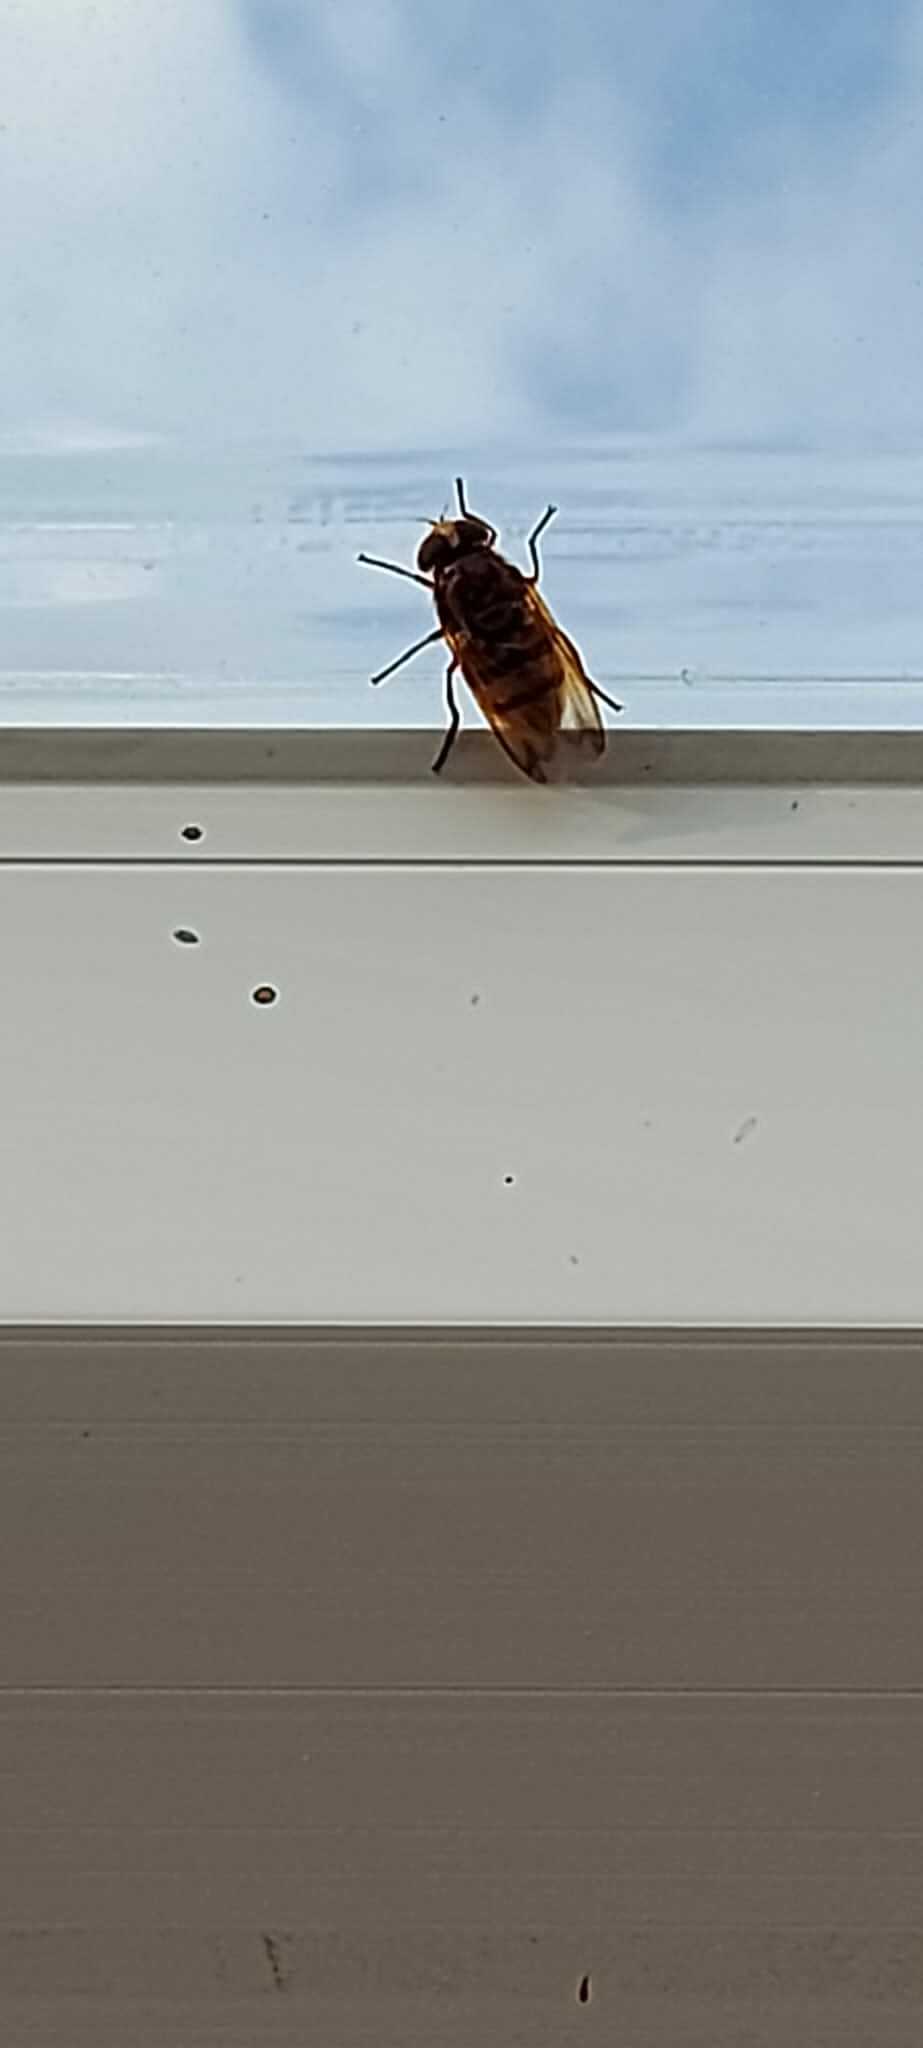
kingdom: Animalia
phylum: Arthropoda
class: Insecta
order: Diptera
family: Syrphidae
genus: Volucella
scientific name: Volucella zonaria
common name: Hornet hoverfly
